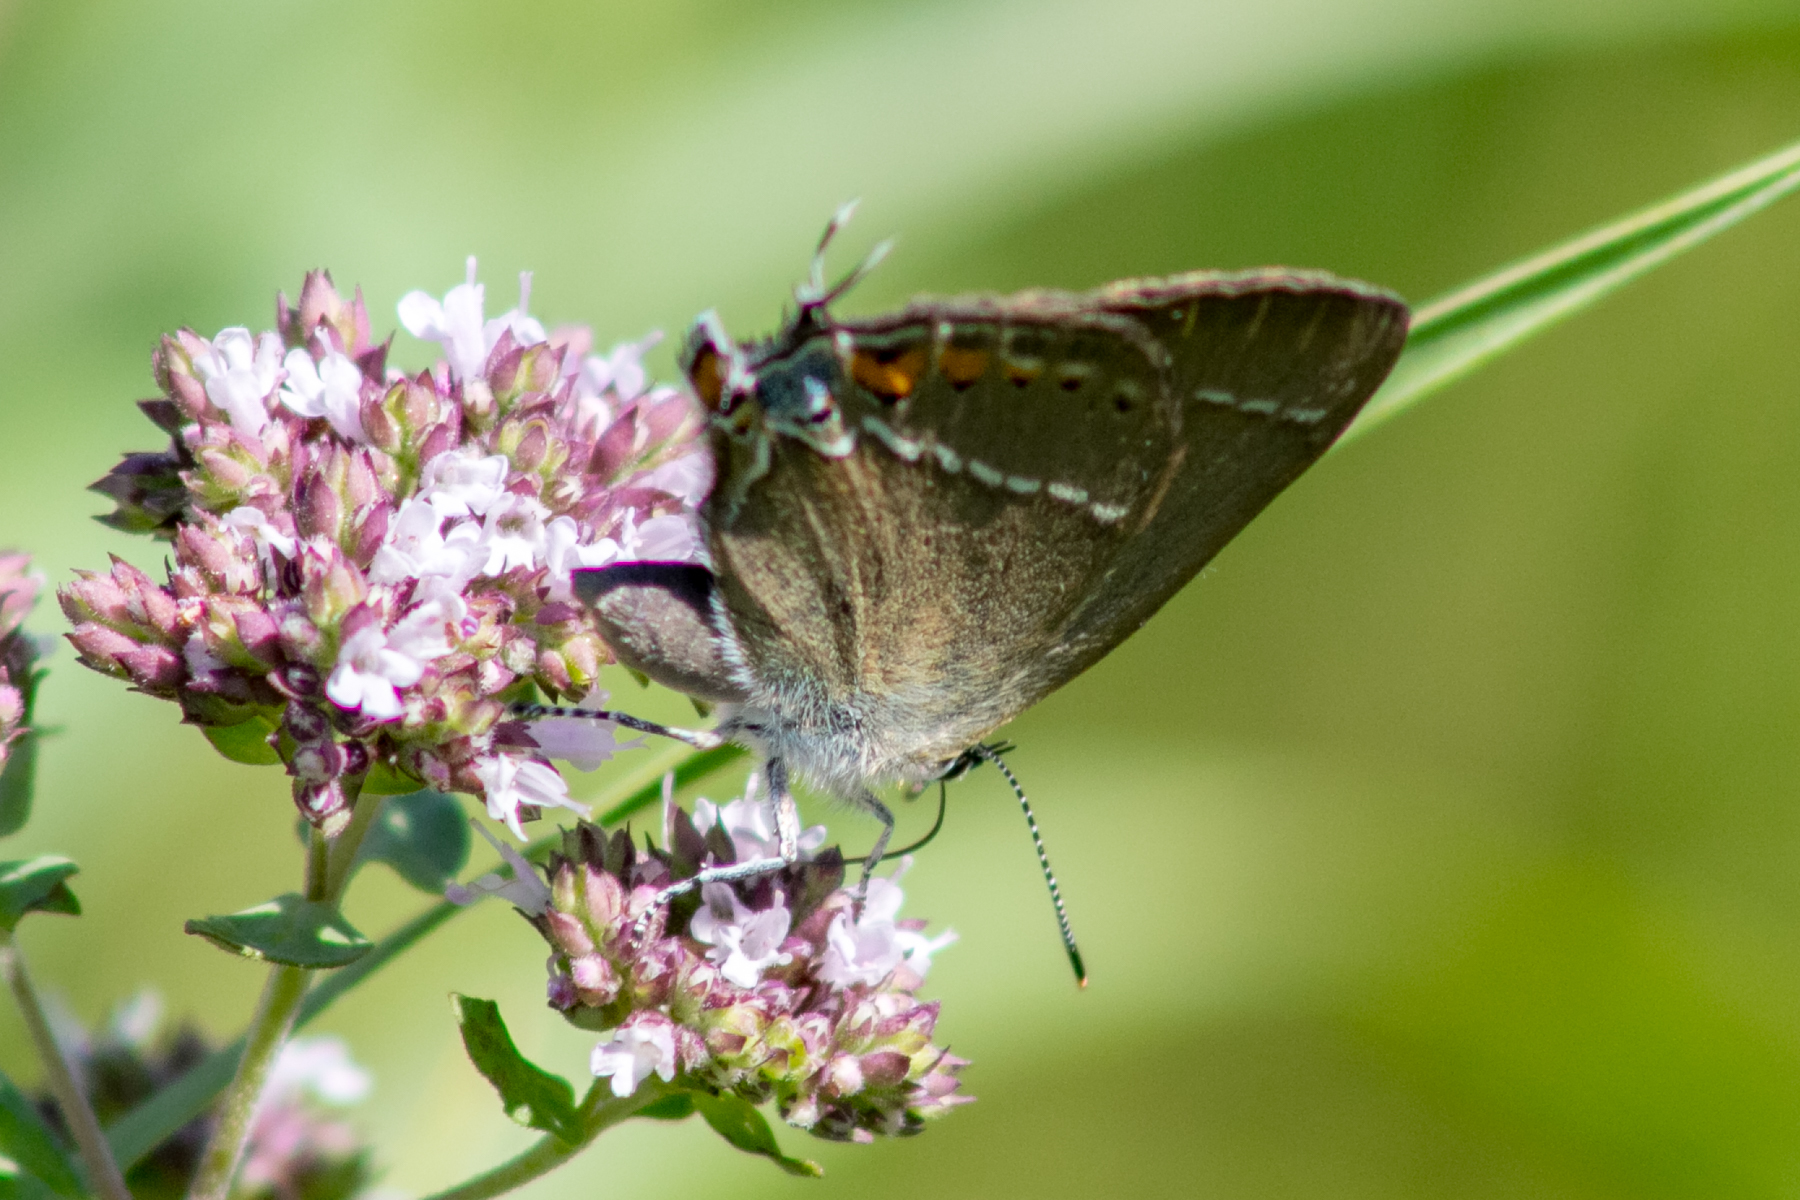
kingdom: Animalia
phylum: Arthropoda
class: Insecta
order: Lepidoptera
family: Lycaenidae
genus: Tuttiola
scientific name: Tuttiola spini
